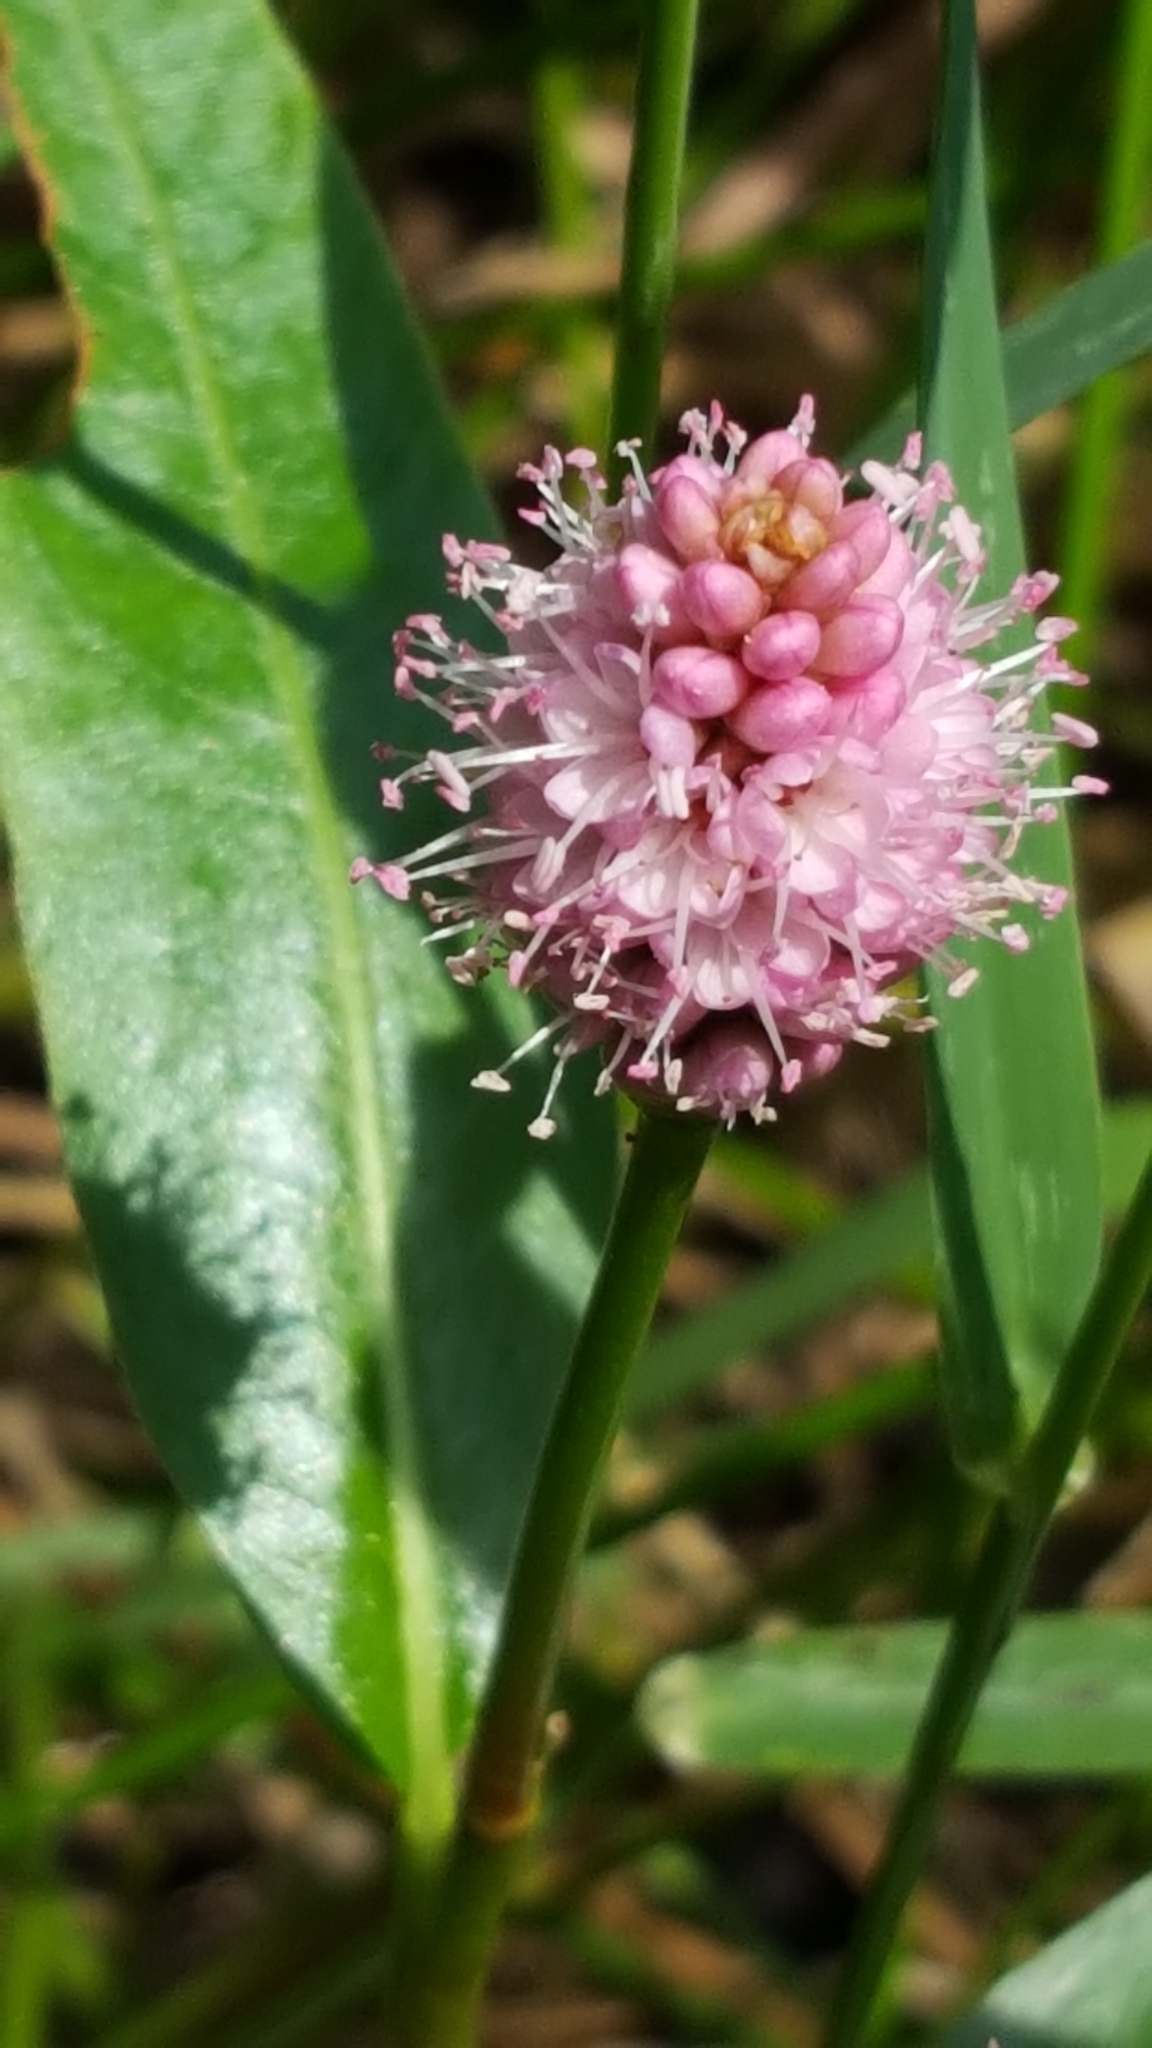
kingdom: Plantae
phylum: Tracheophyta
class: Magnoliopsida
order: Caryophyllales
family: Polygonaceae
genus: Persicaria
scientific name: Persicaria amphibia
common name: Amphibious bistort
